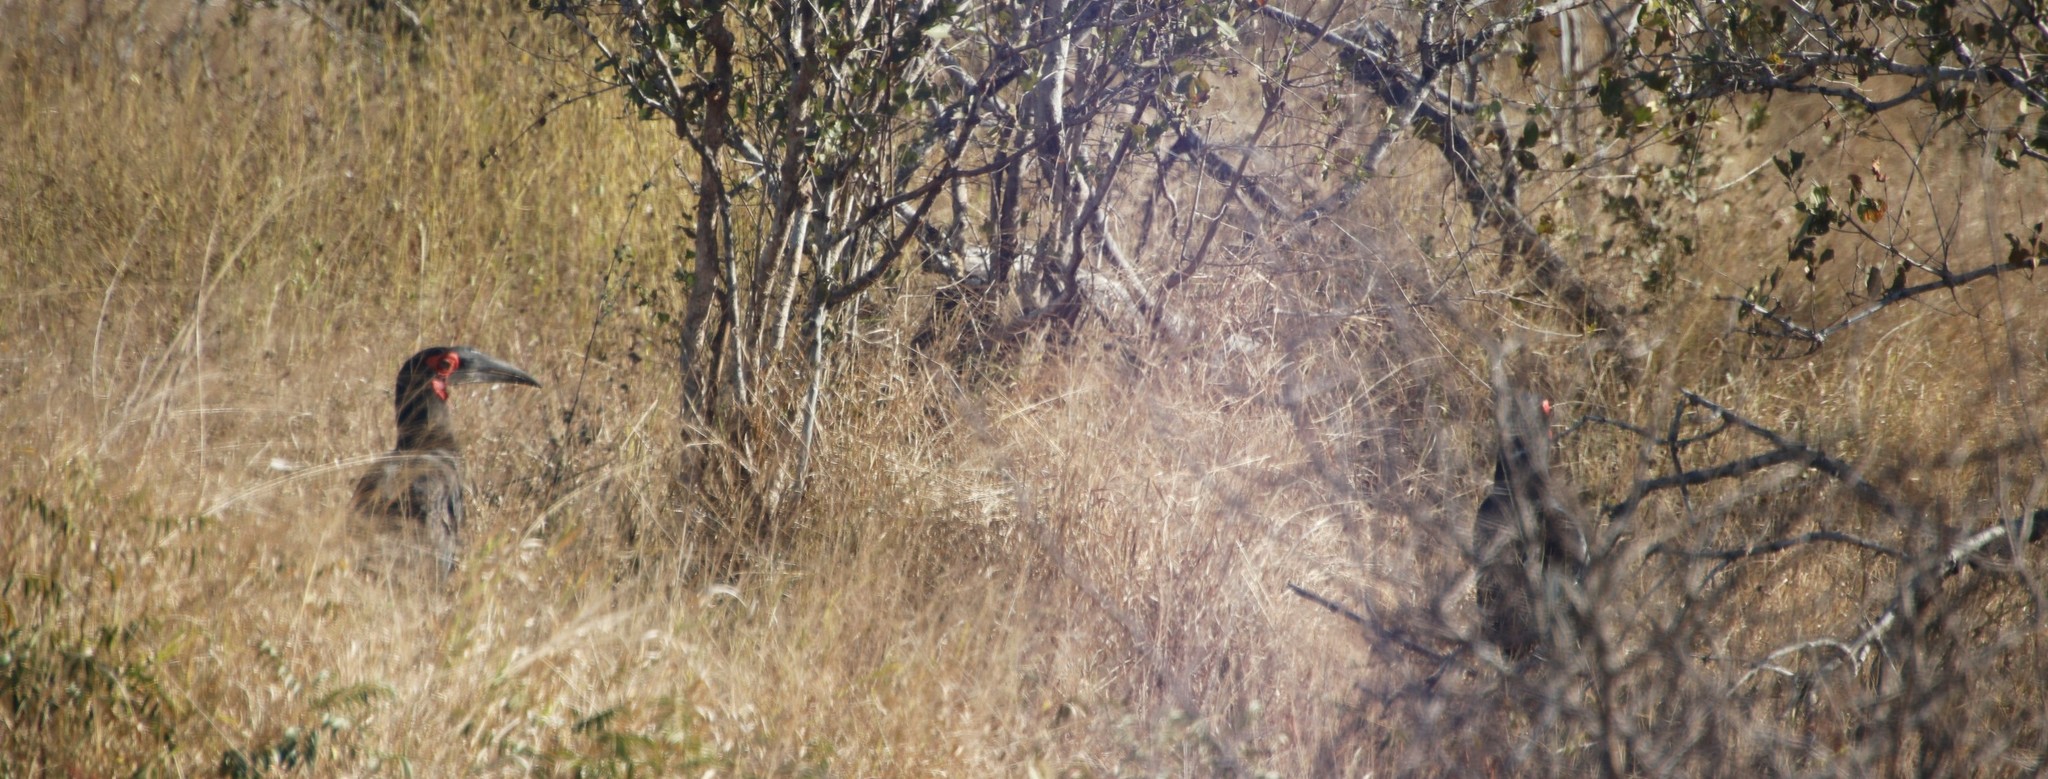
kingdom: Animalia
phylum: Chordata
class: Aves
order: Bucerotiformes
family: Bucorvidae
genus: Bucorvus
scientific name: Bucorvus leadbeateri
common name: Southern ground-hornbill
